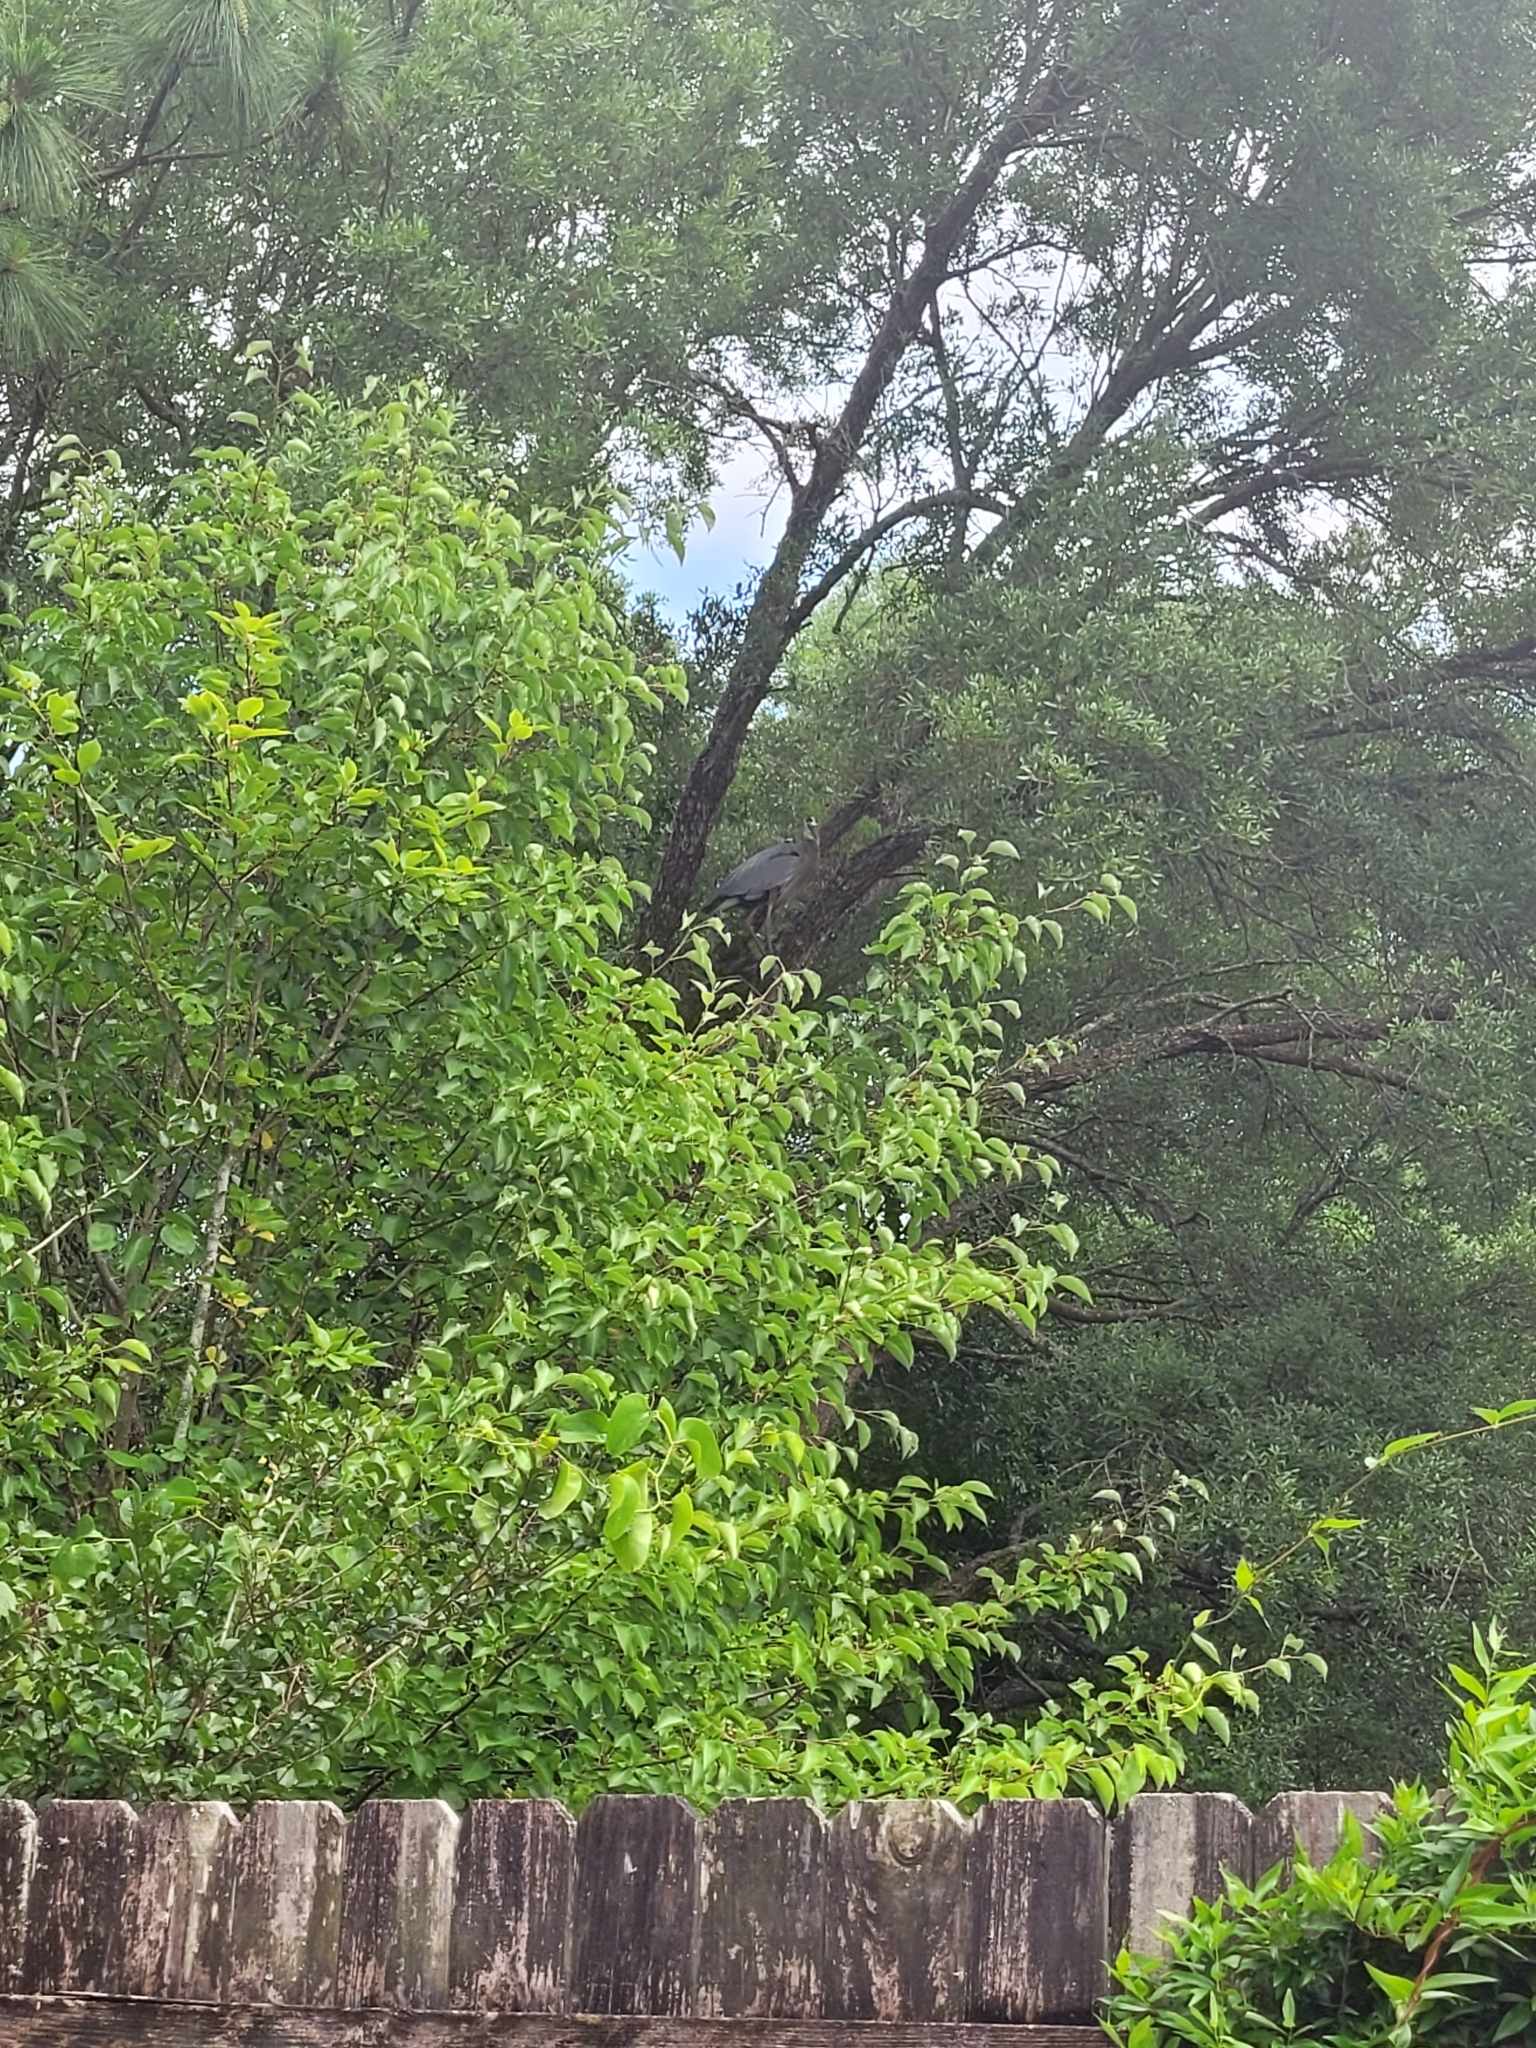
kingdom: Animalia
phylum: Chordata
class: Aves
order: Pelecaniformes
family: Ardeidae
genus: Ardea
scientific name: Ardea herodias
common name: Great blue heron
